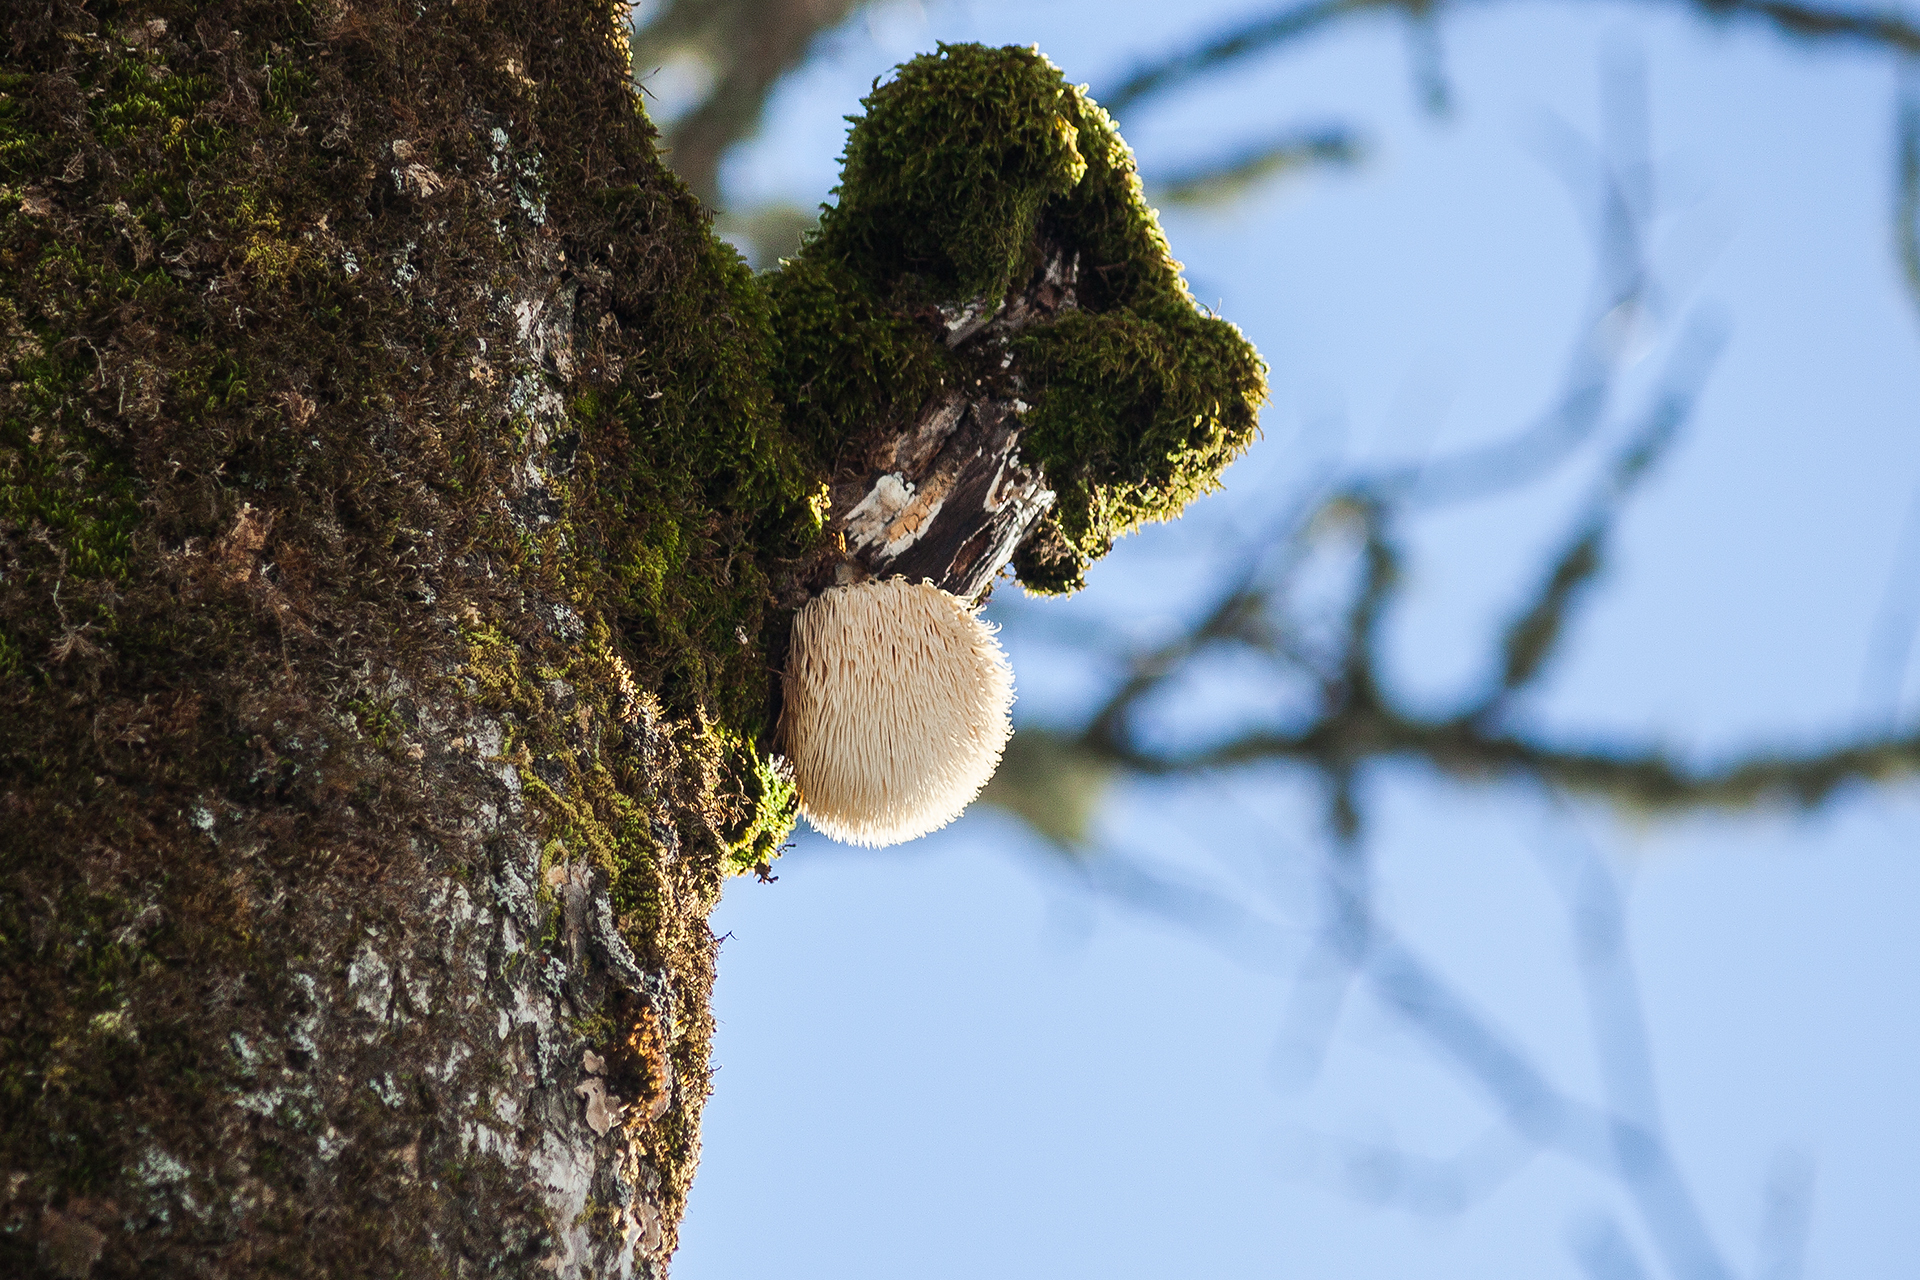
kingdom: Fungi
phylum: Basidiomycota
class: Agaricomycetes
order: Russulales
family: Hericiaceae
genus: Hericium
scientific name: Hericium erinaceus
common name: Bearded tooth
